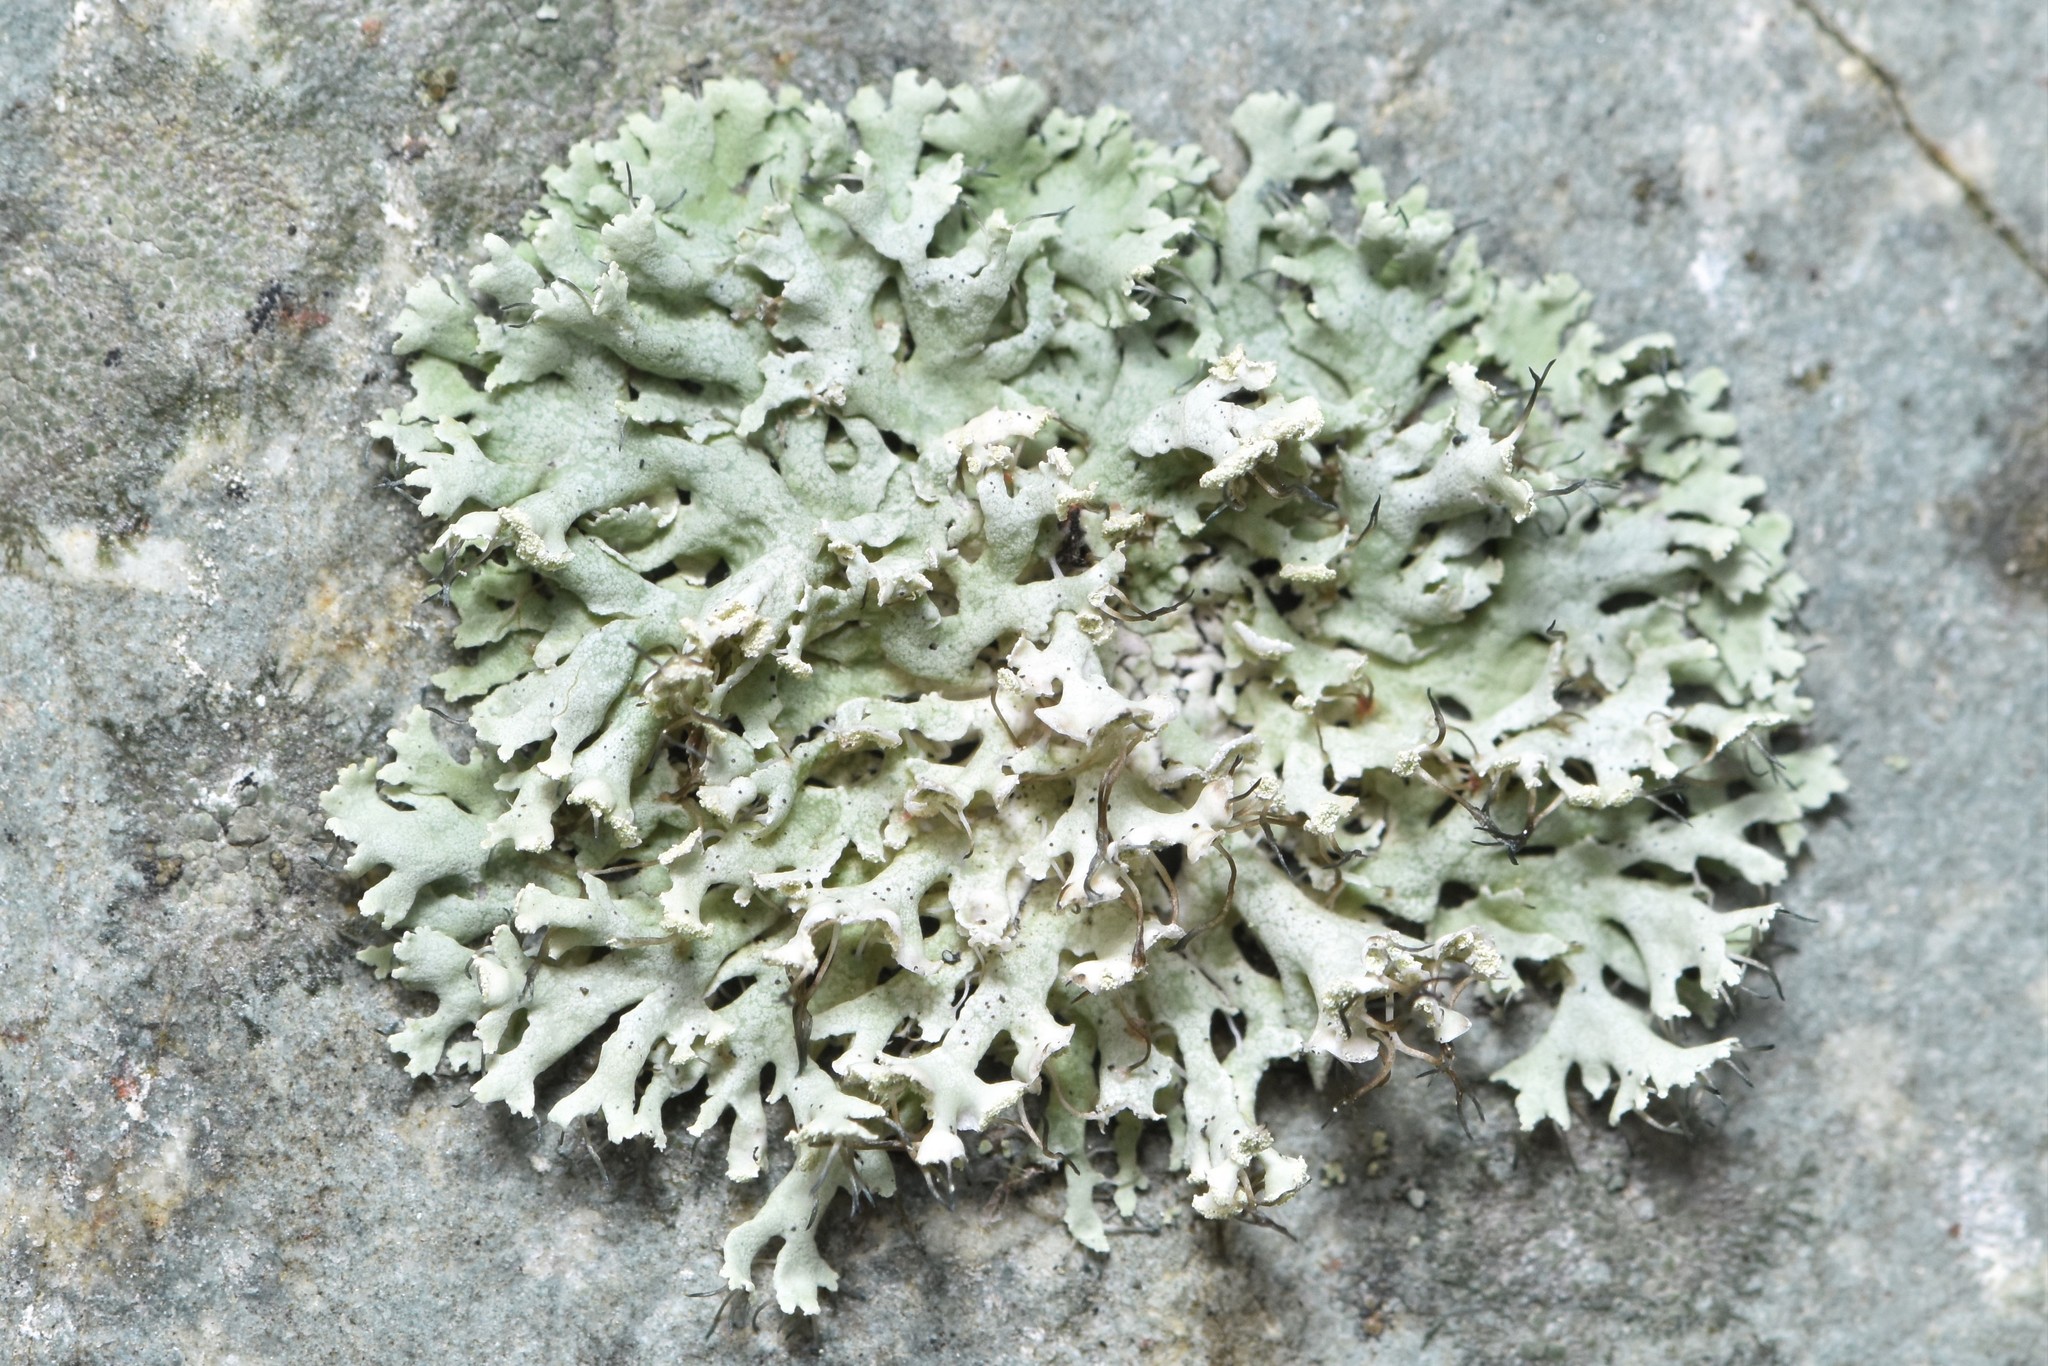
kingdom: Fungi
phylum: Ascomycota
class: Lecanoromycetes
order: Caliciales
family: Physciaceae
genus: Physcia
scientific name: Physcia tenella
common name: Fringed rosette lichen
